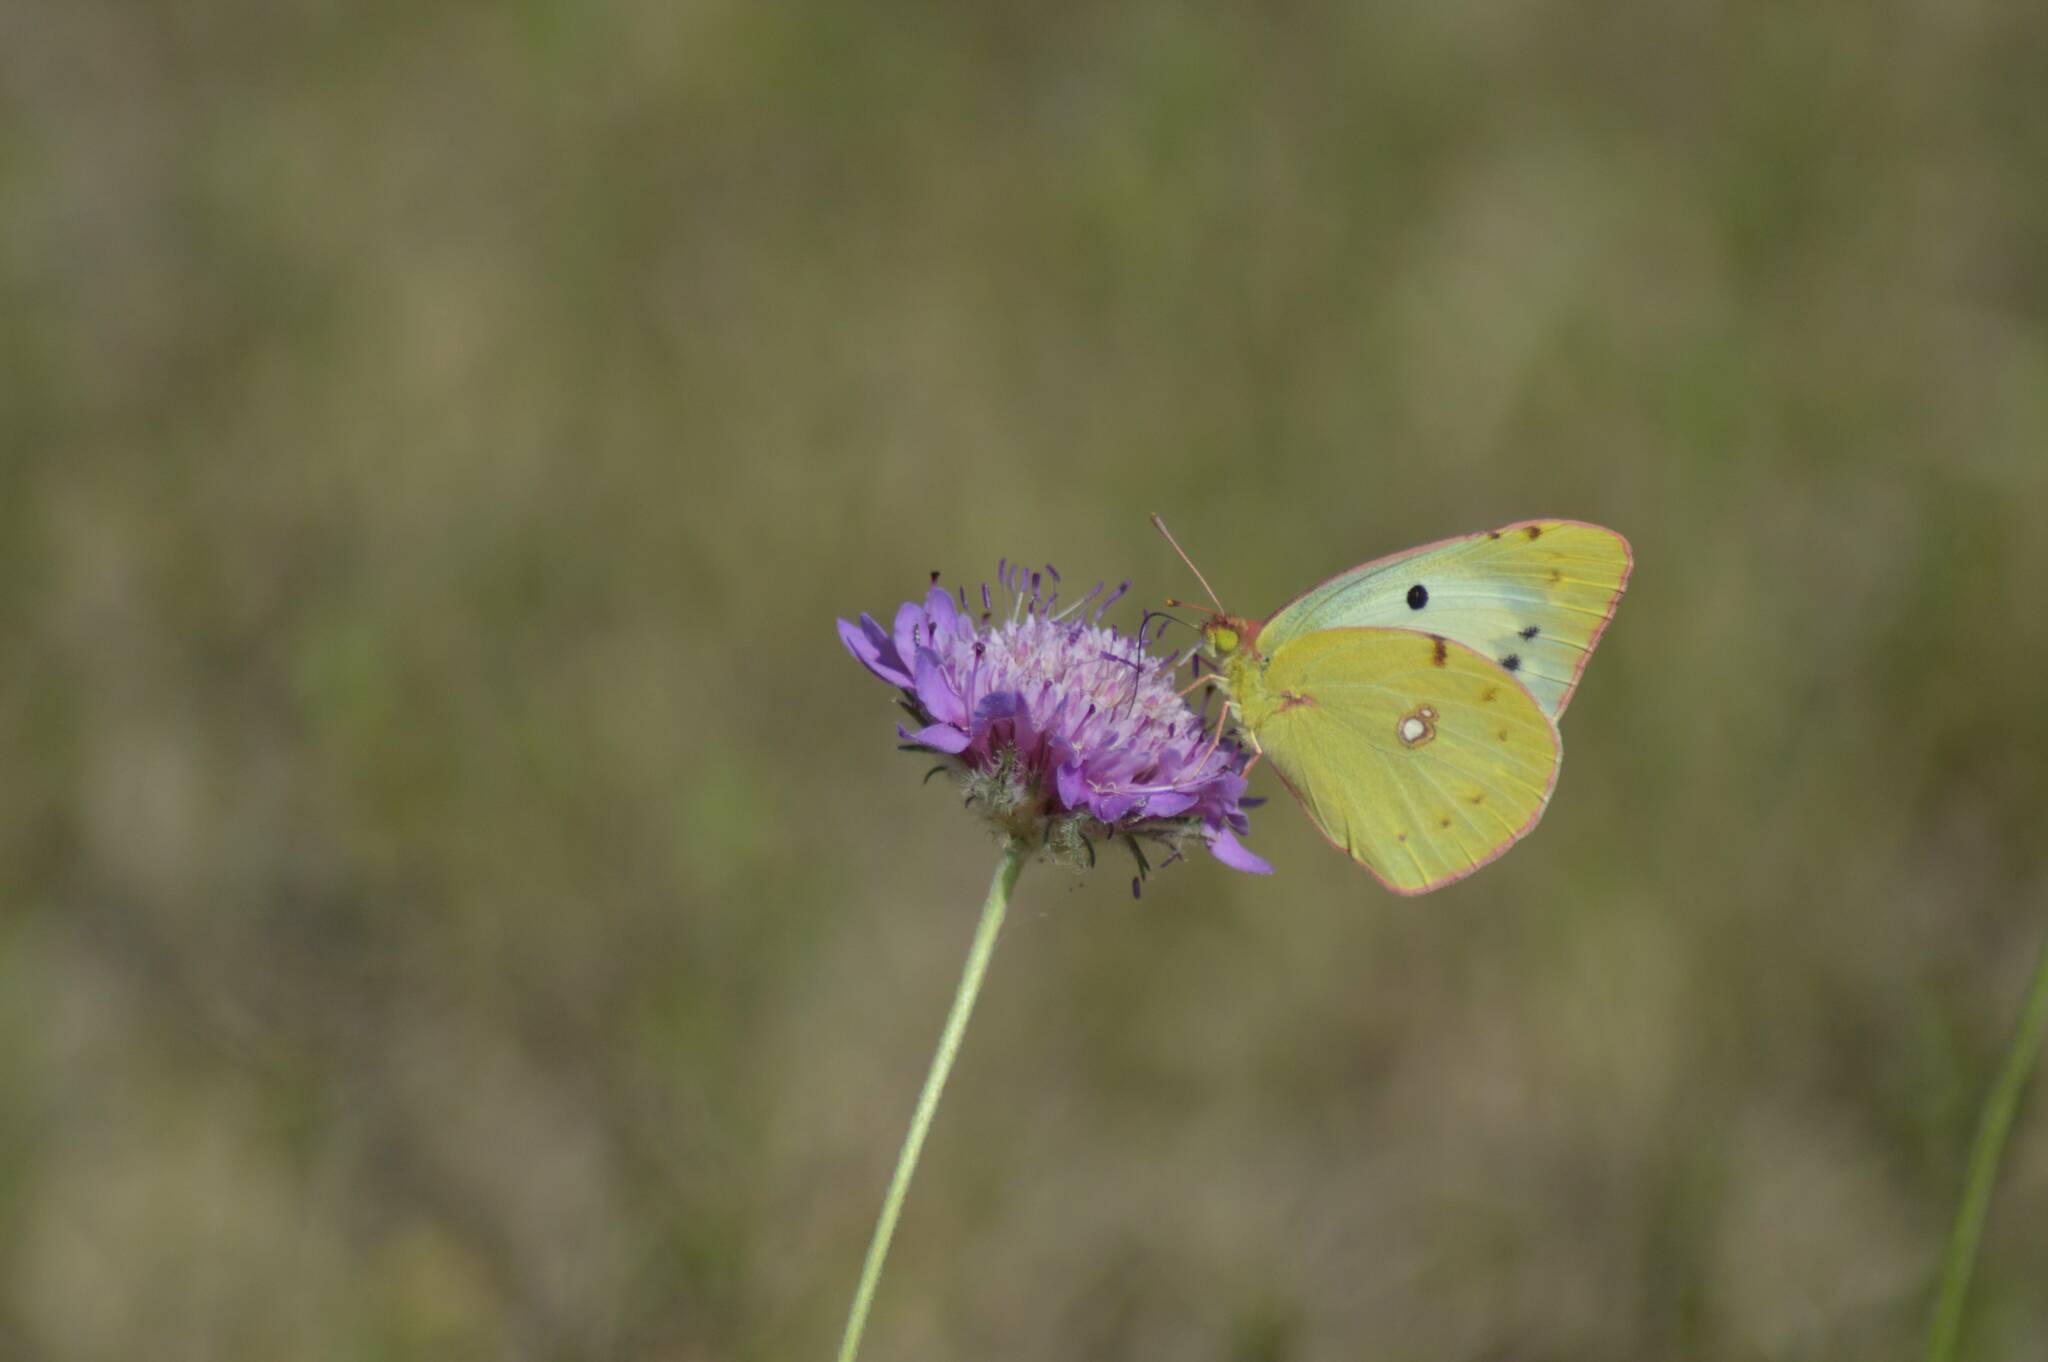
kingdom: Animalia
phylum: Arthropoda
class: Insecta
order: Lepidoptera
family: Pieridae
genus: Colias
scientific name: Colias croceus
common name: Clouded yellow
